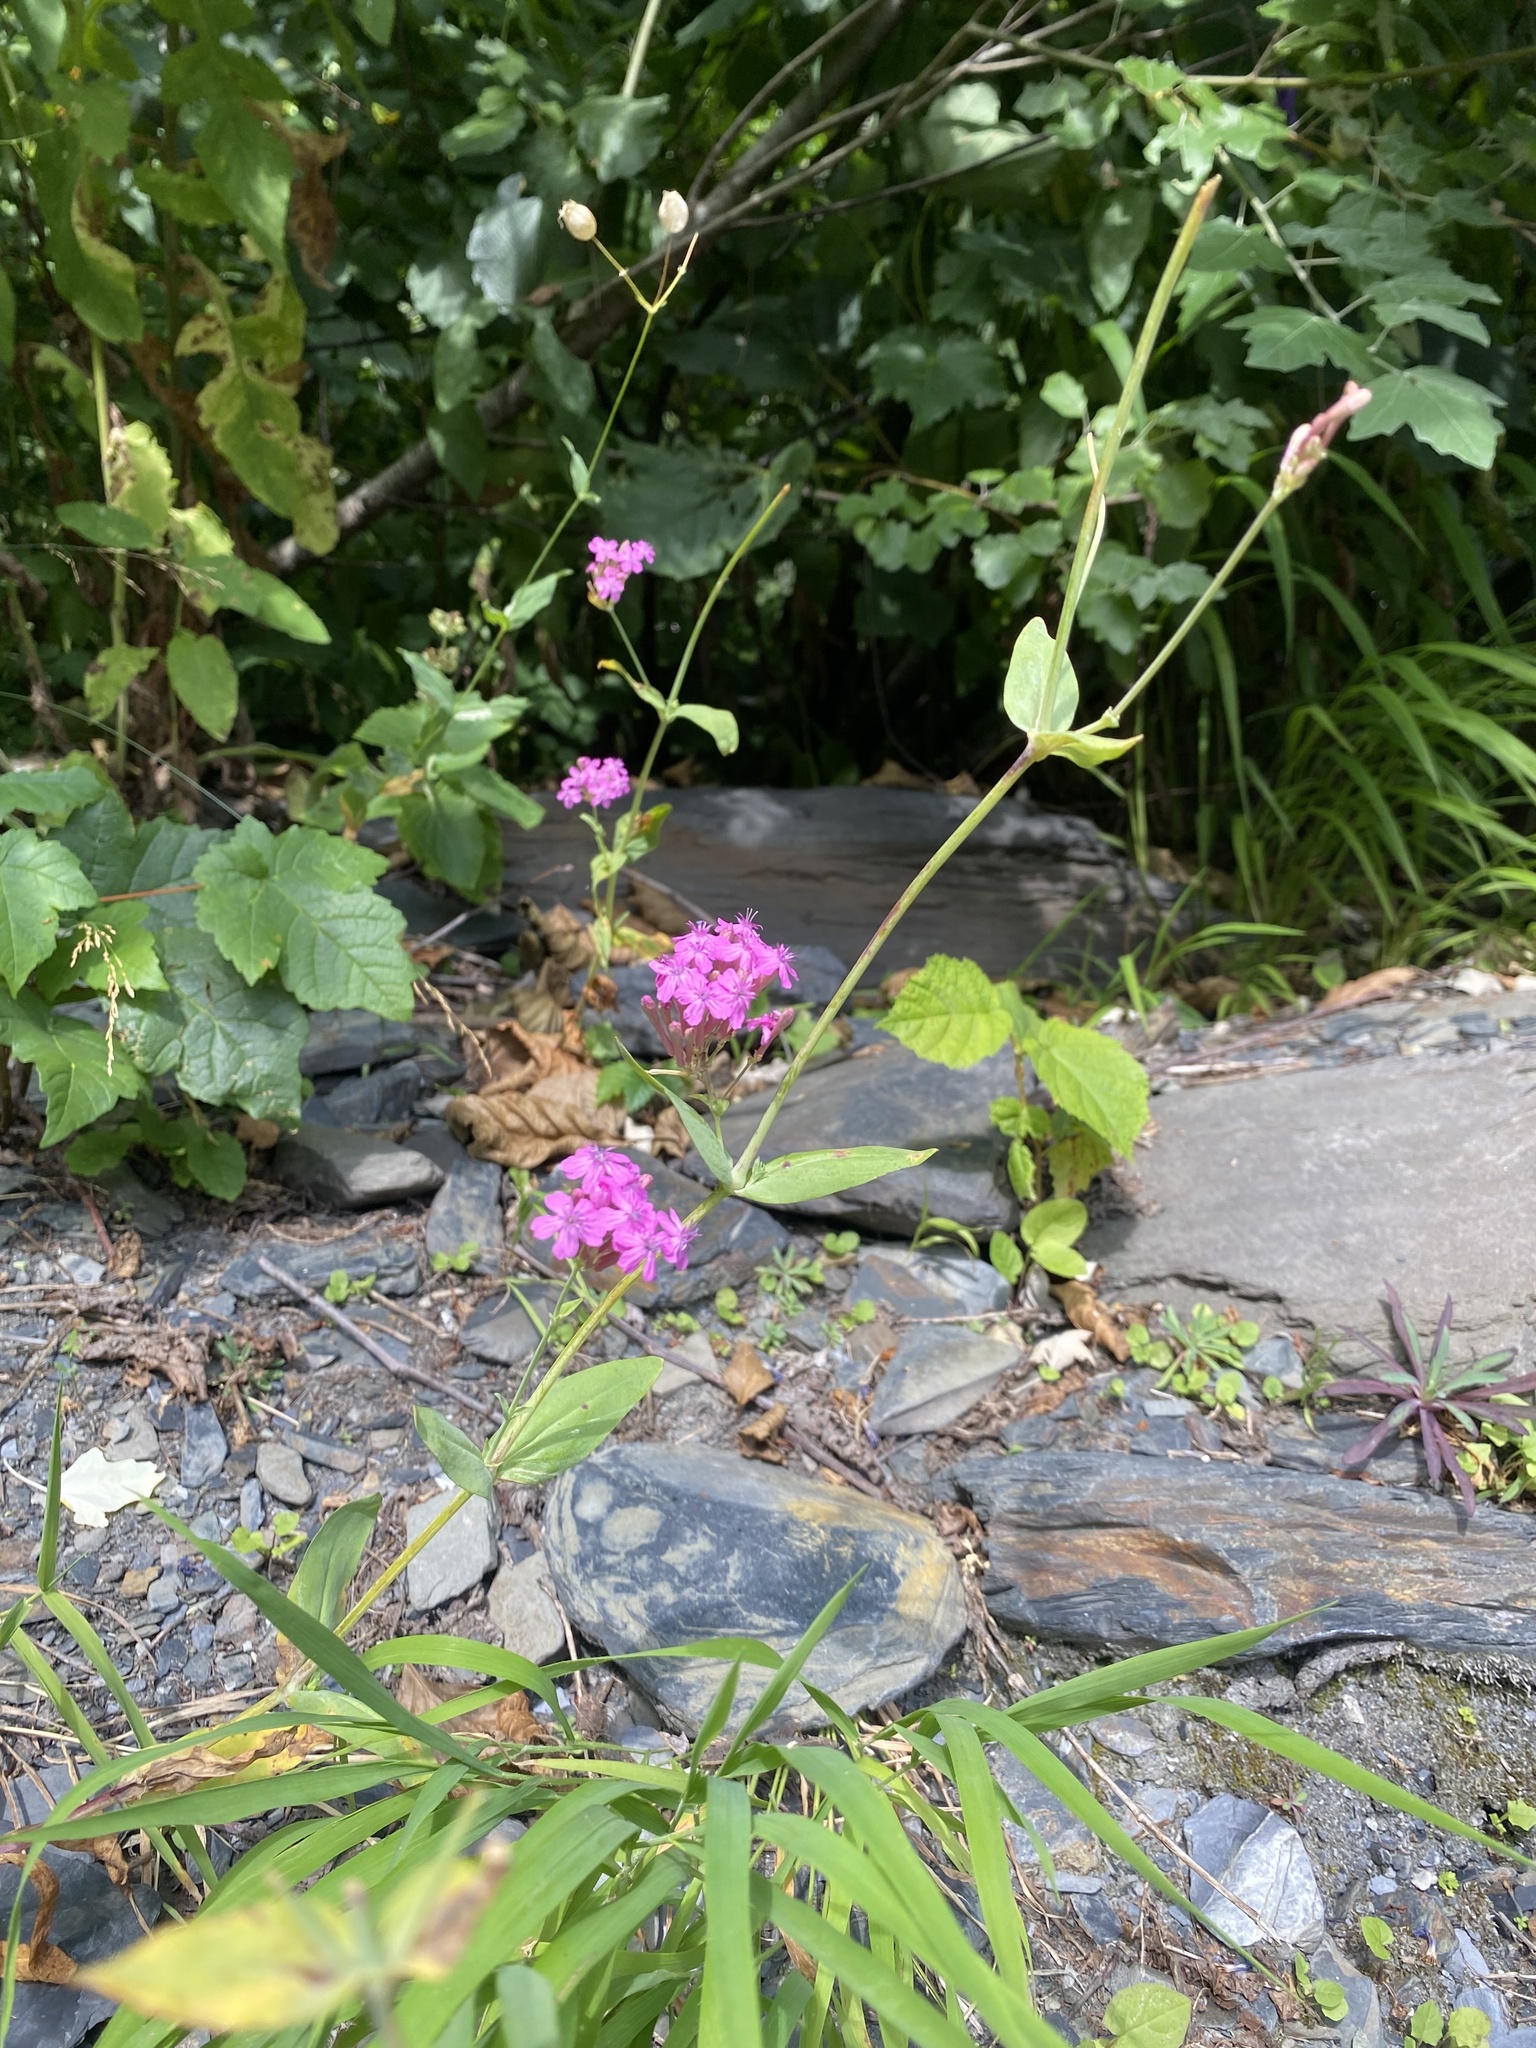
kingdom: Plantae
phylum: Tracheophyta
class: Magnoliopsida
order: Caryophyllales
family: Caryophyllaceae
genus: Atocion
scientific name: Atocion compactum
